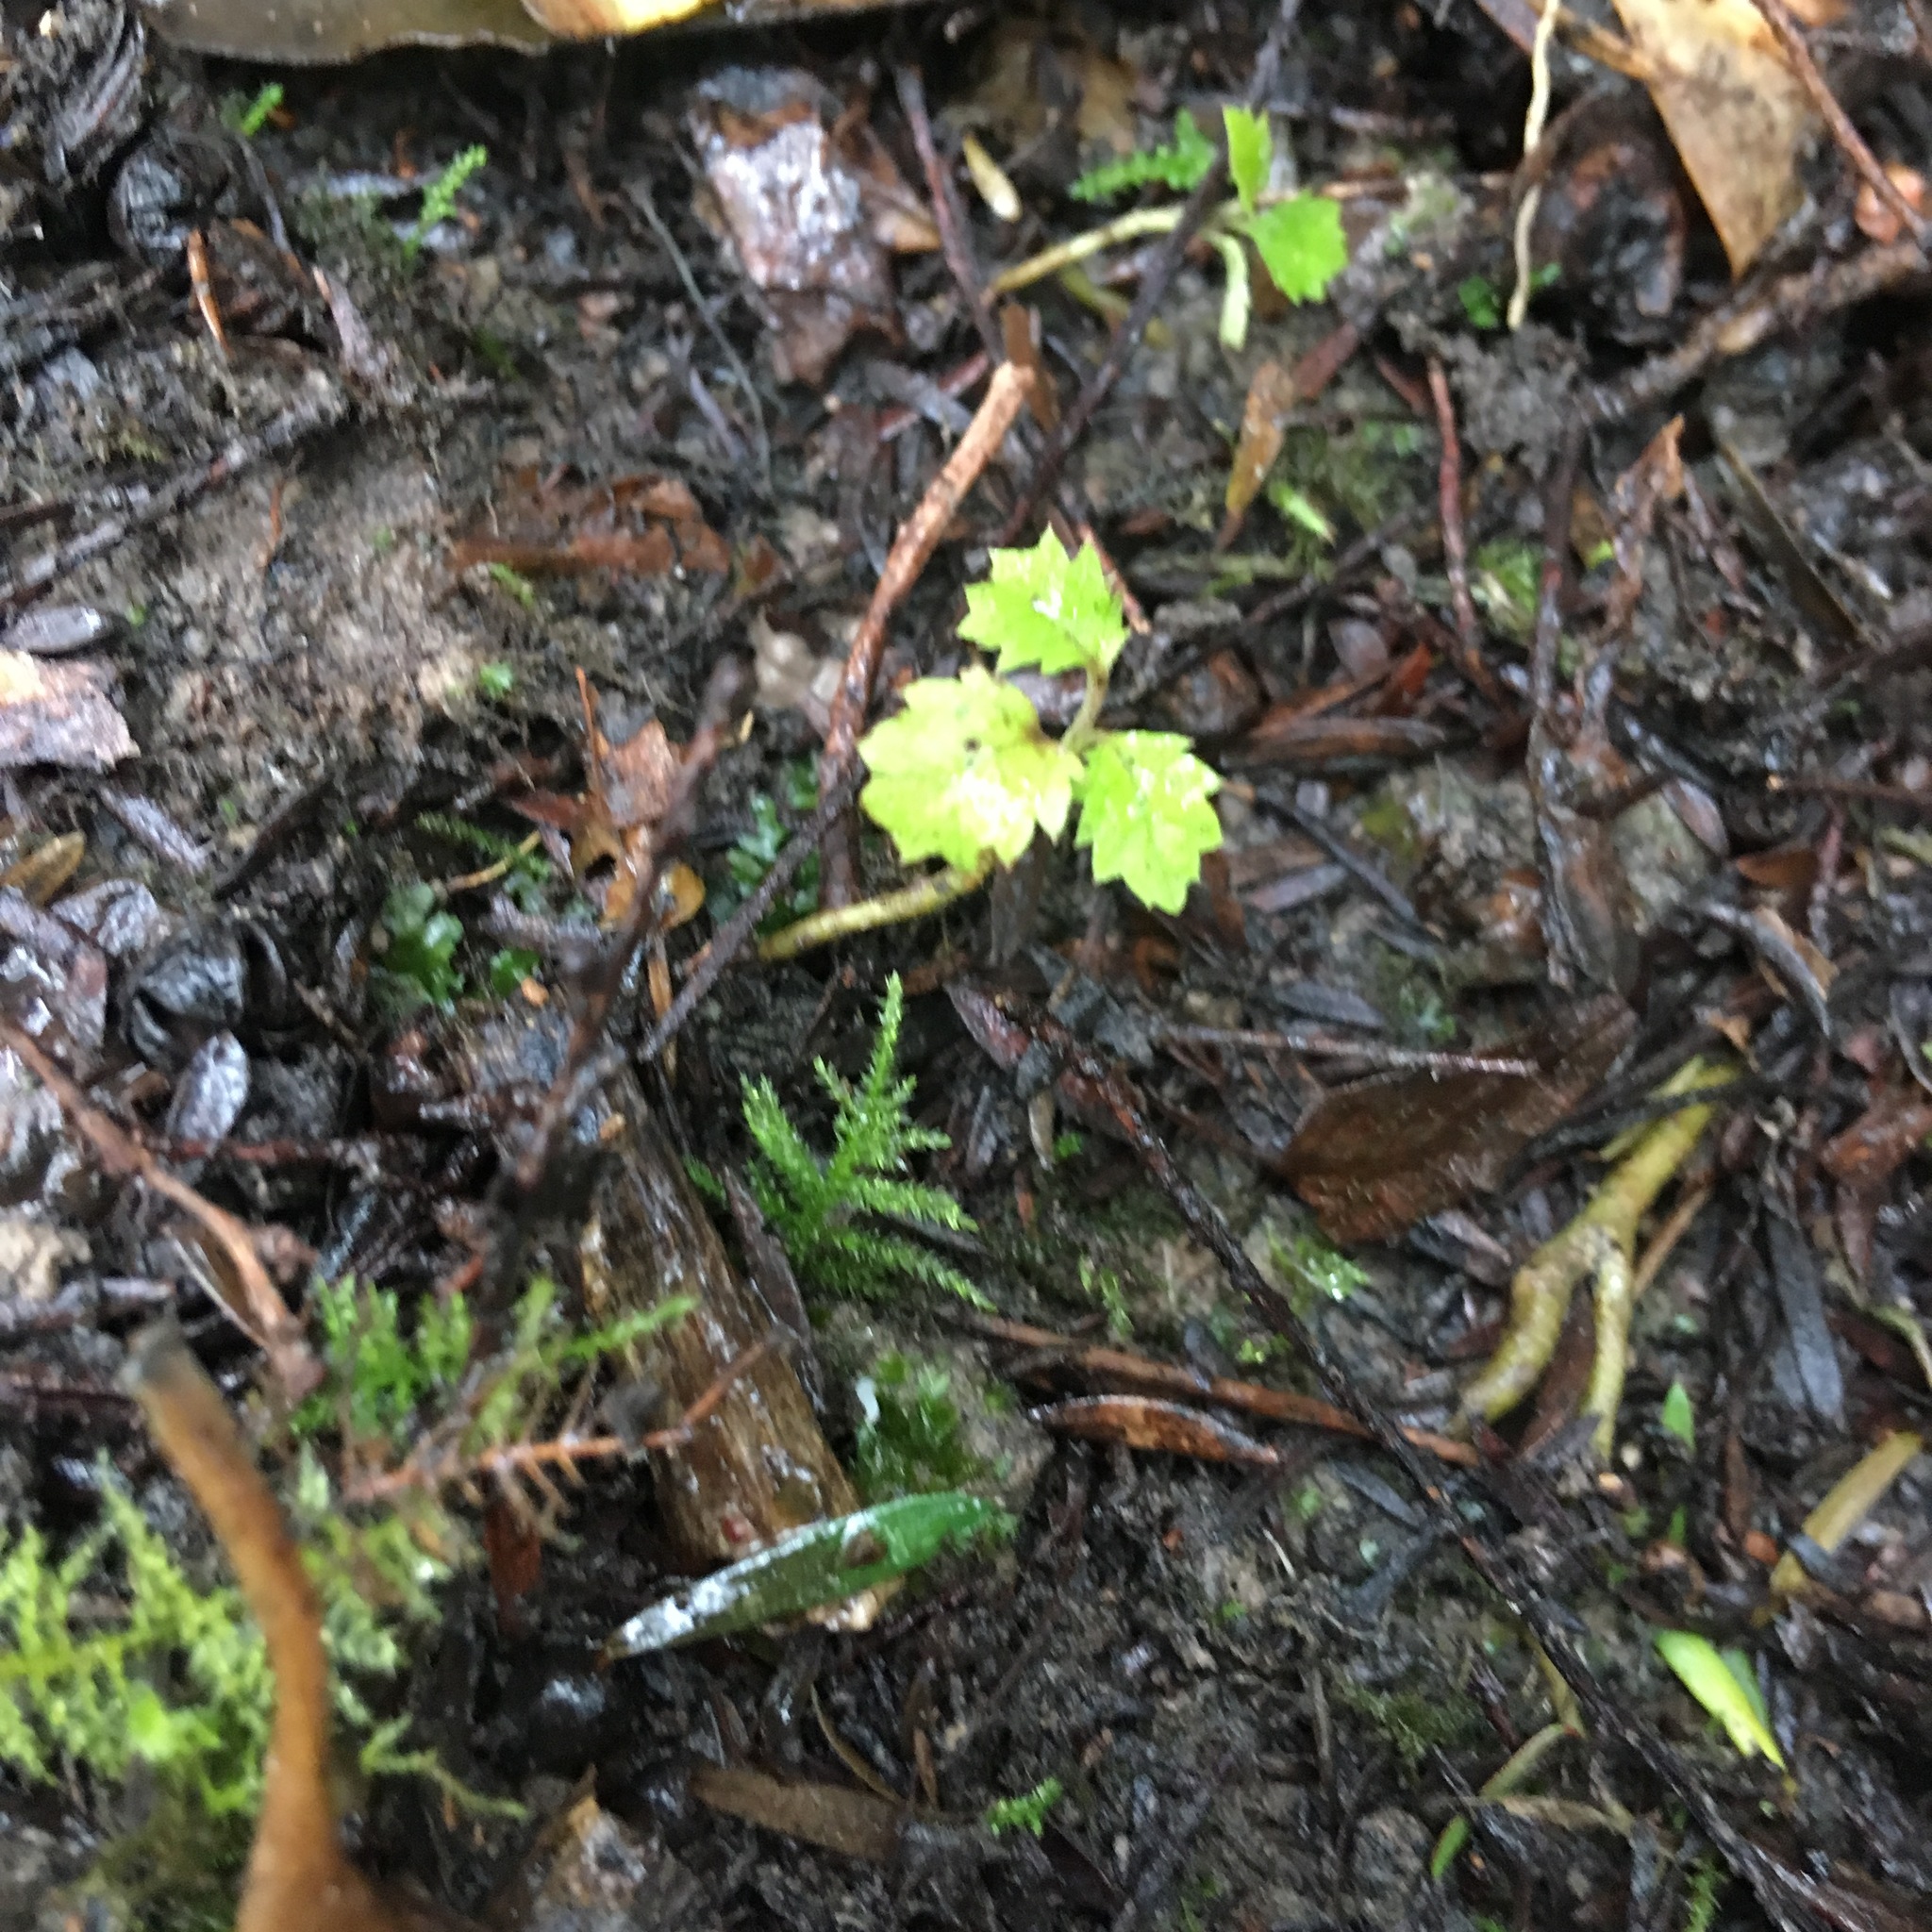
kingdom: Plantae
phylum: Bryophyta
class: Bryopsida
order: Hypnales
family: Brachytheciaceae
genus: Kindbergia
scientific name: Kindbergia praelonga
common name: Slender beaked moss
